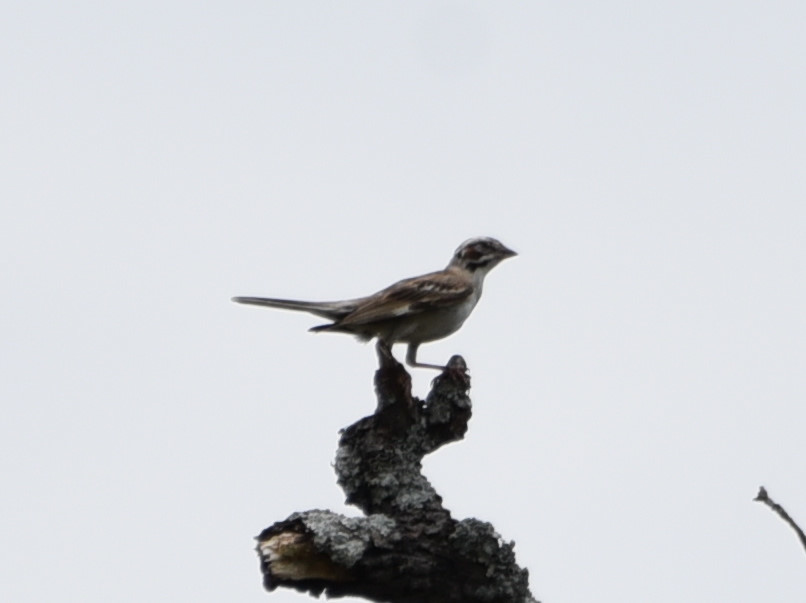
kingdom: Animalia
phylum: Chordata
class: Aves
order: Passeriformes
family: Passerellidae
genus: Chondestes
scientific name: Chondestes grammacus
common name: Lark sparrow
